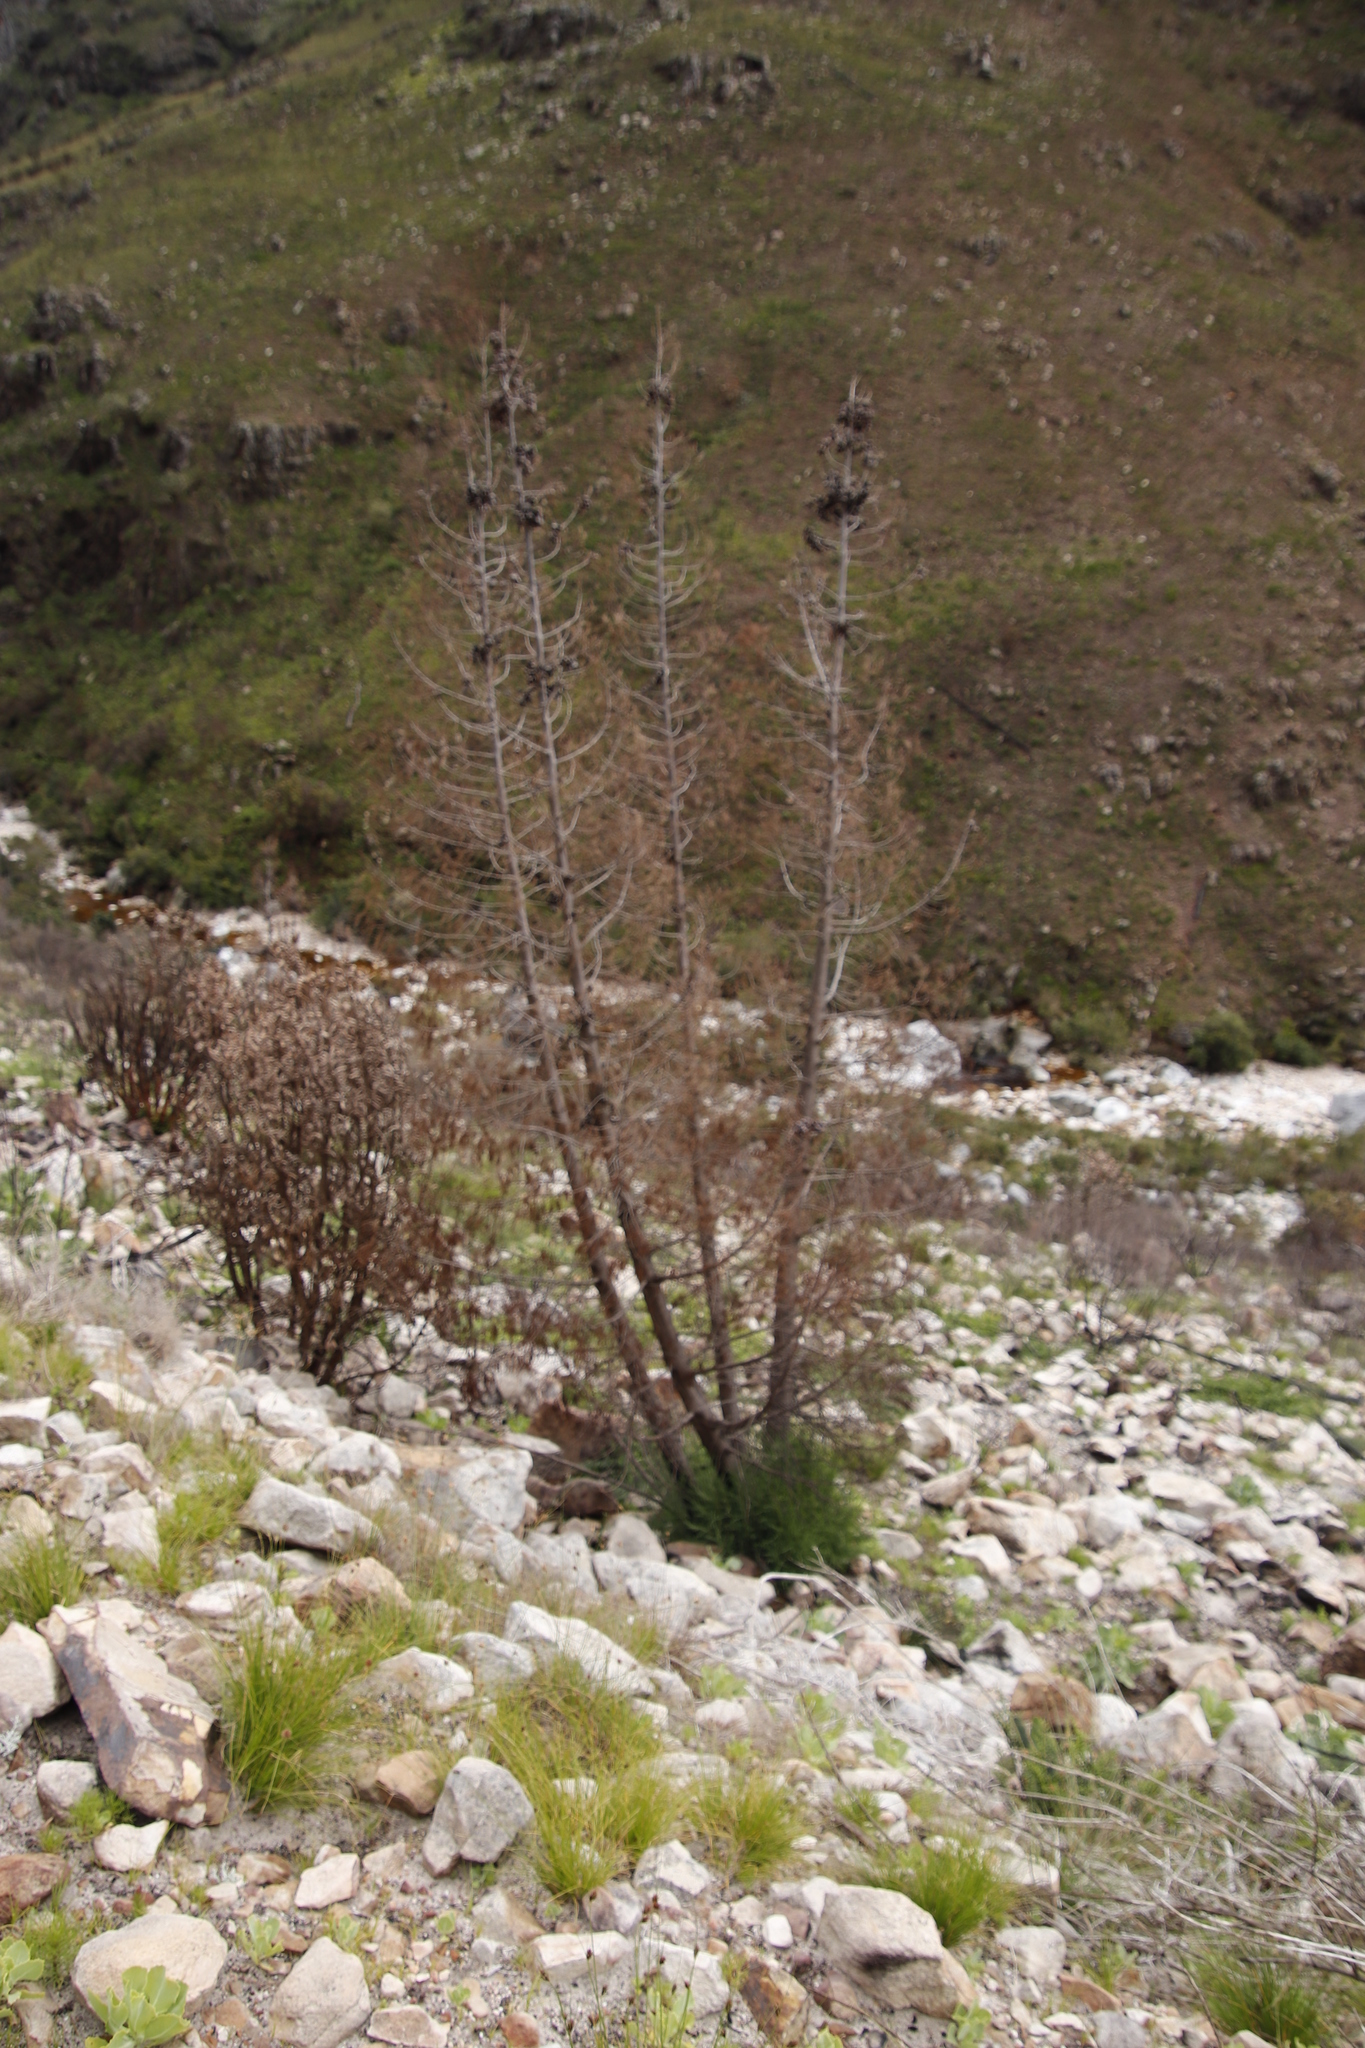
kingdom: Plantae
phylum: Tracheophyta
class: Pinopsida
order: Pinales
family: Cupressaceae
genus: Widdringtonia
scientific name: Widdringtonia nodiflora
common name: Cape cypress
